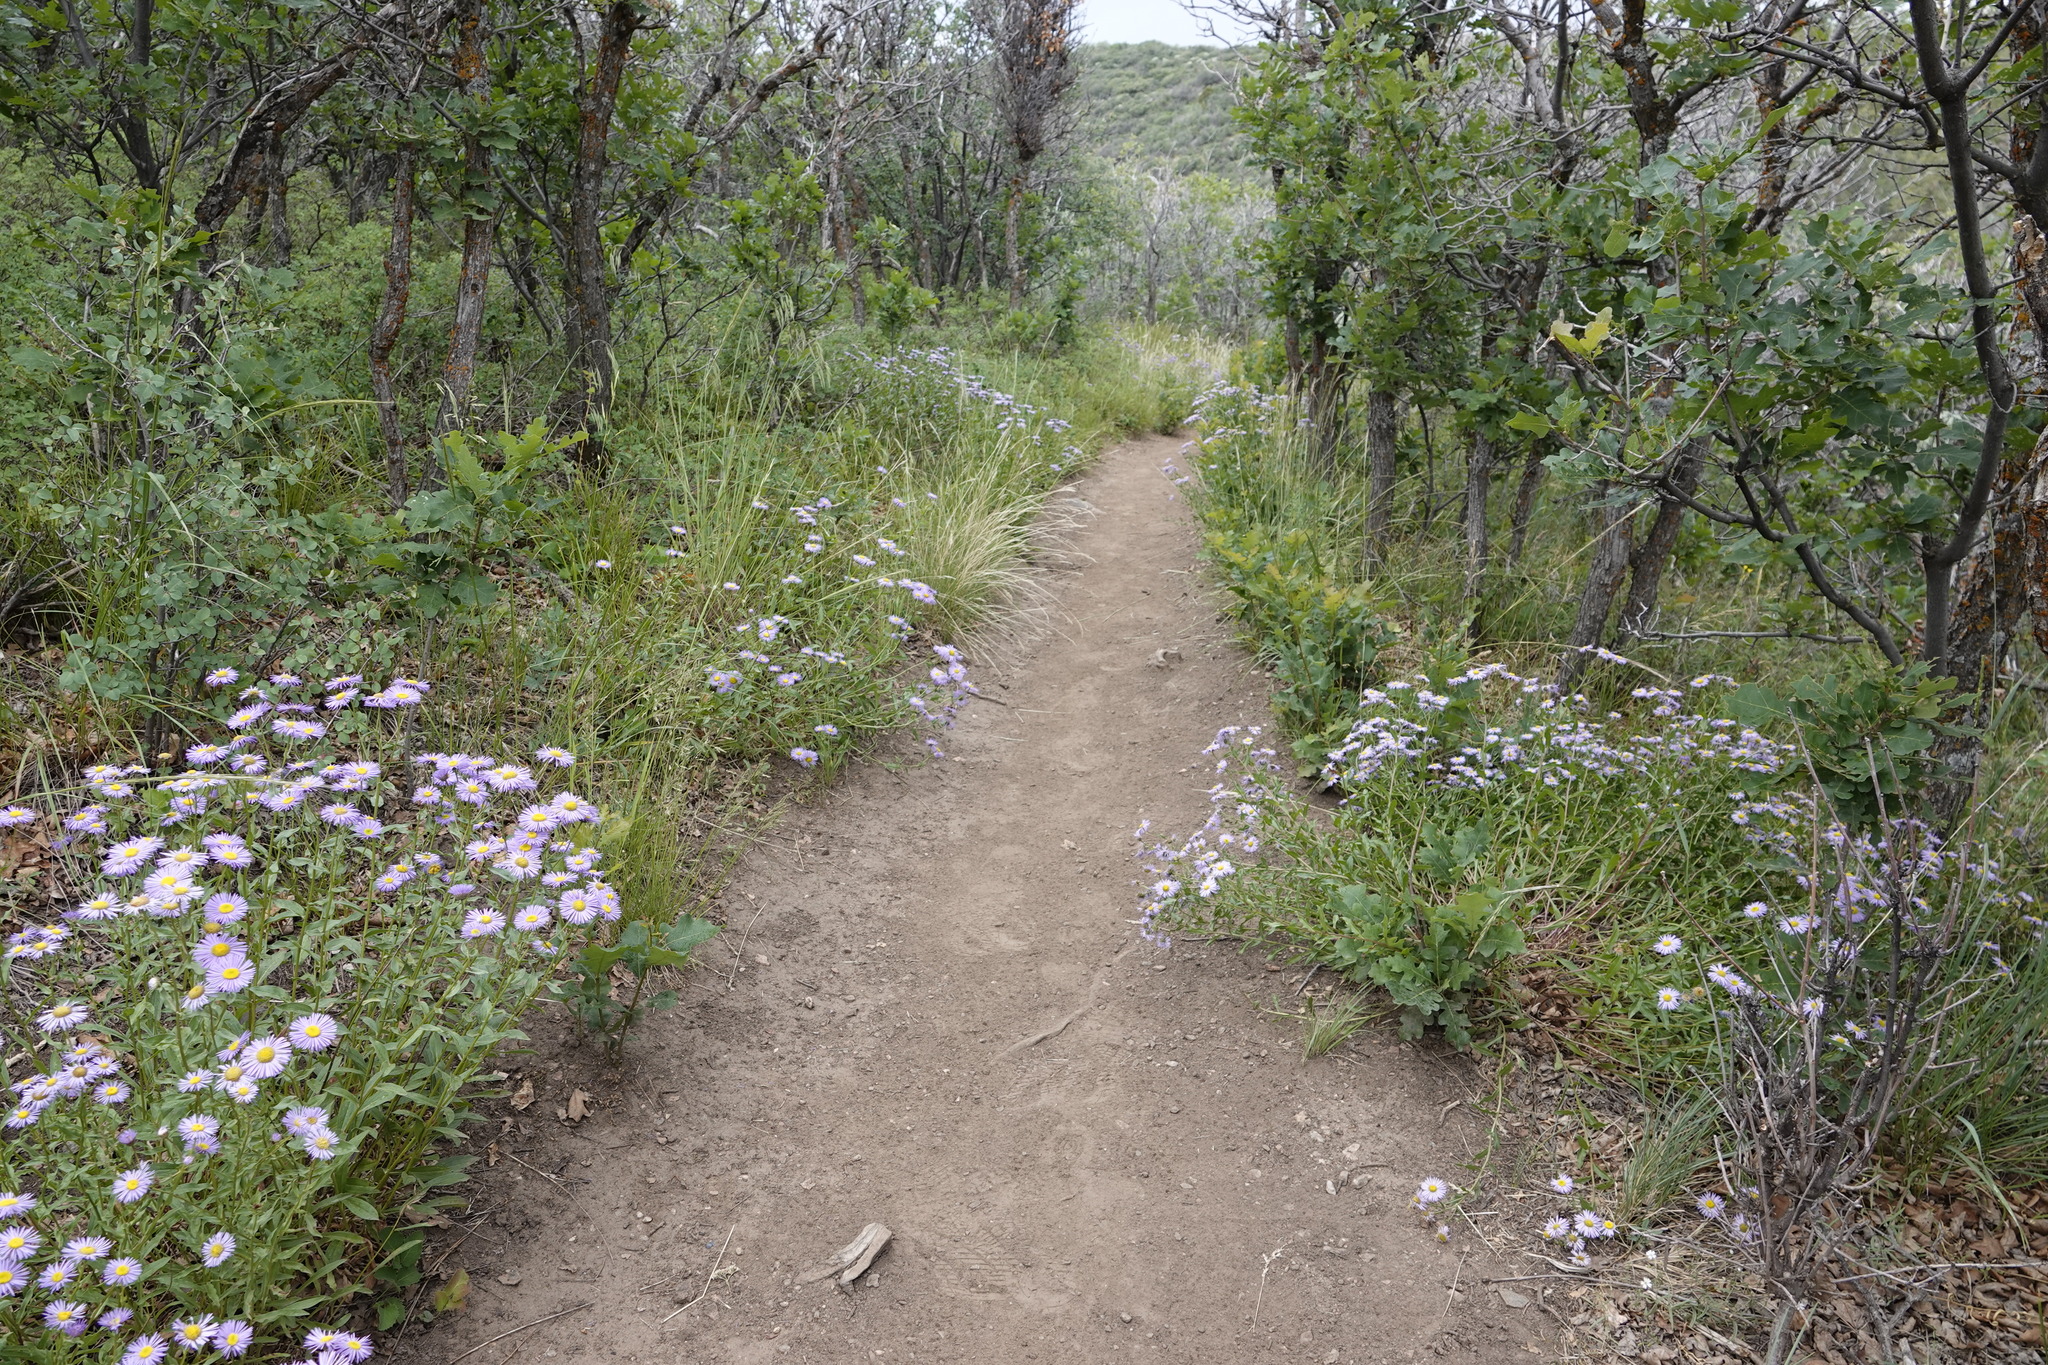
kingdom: Plantae
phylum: Tracheophyta
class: Magnoliopsida
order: Asterales
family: Asteraceae
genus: Erigeron
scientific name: Erigeron speciosus
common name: Aspen fleabane
